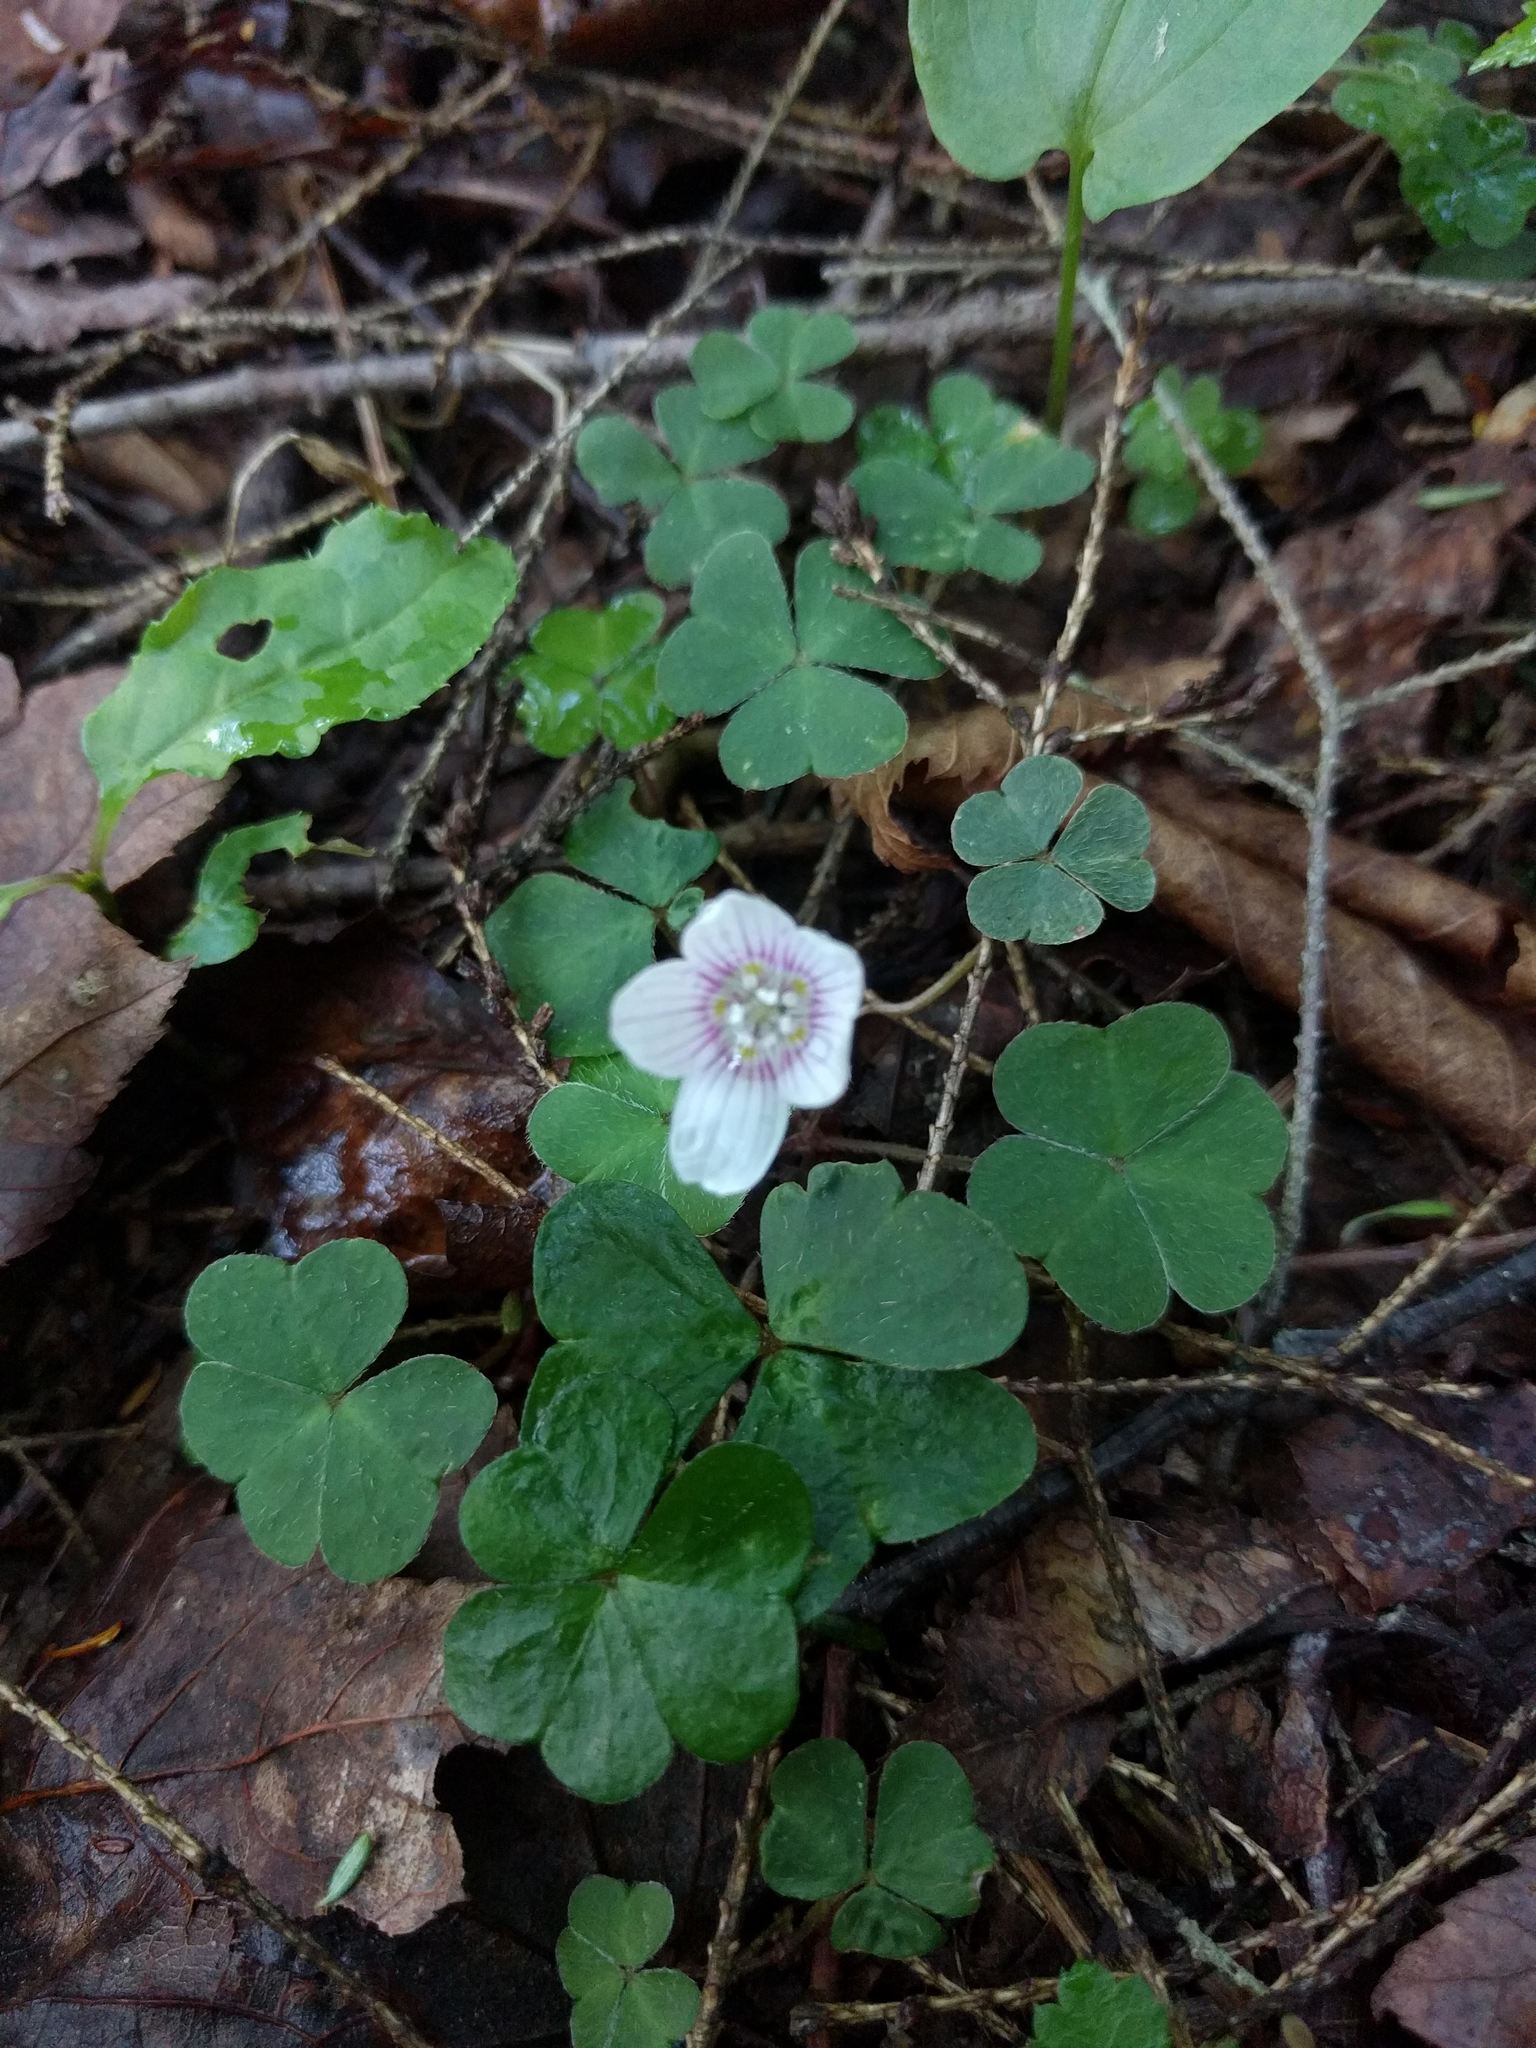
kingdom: Plantae
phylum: Tracheophyta
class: Magnoliopsida
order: Oxalidales
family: Oxalidaceae
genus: Oxalis
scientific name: Oxalis montana
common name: American wood-sorrel
